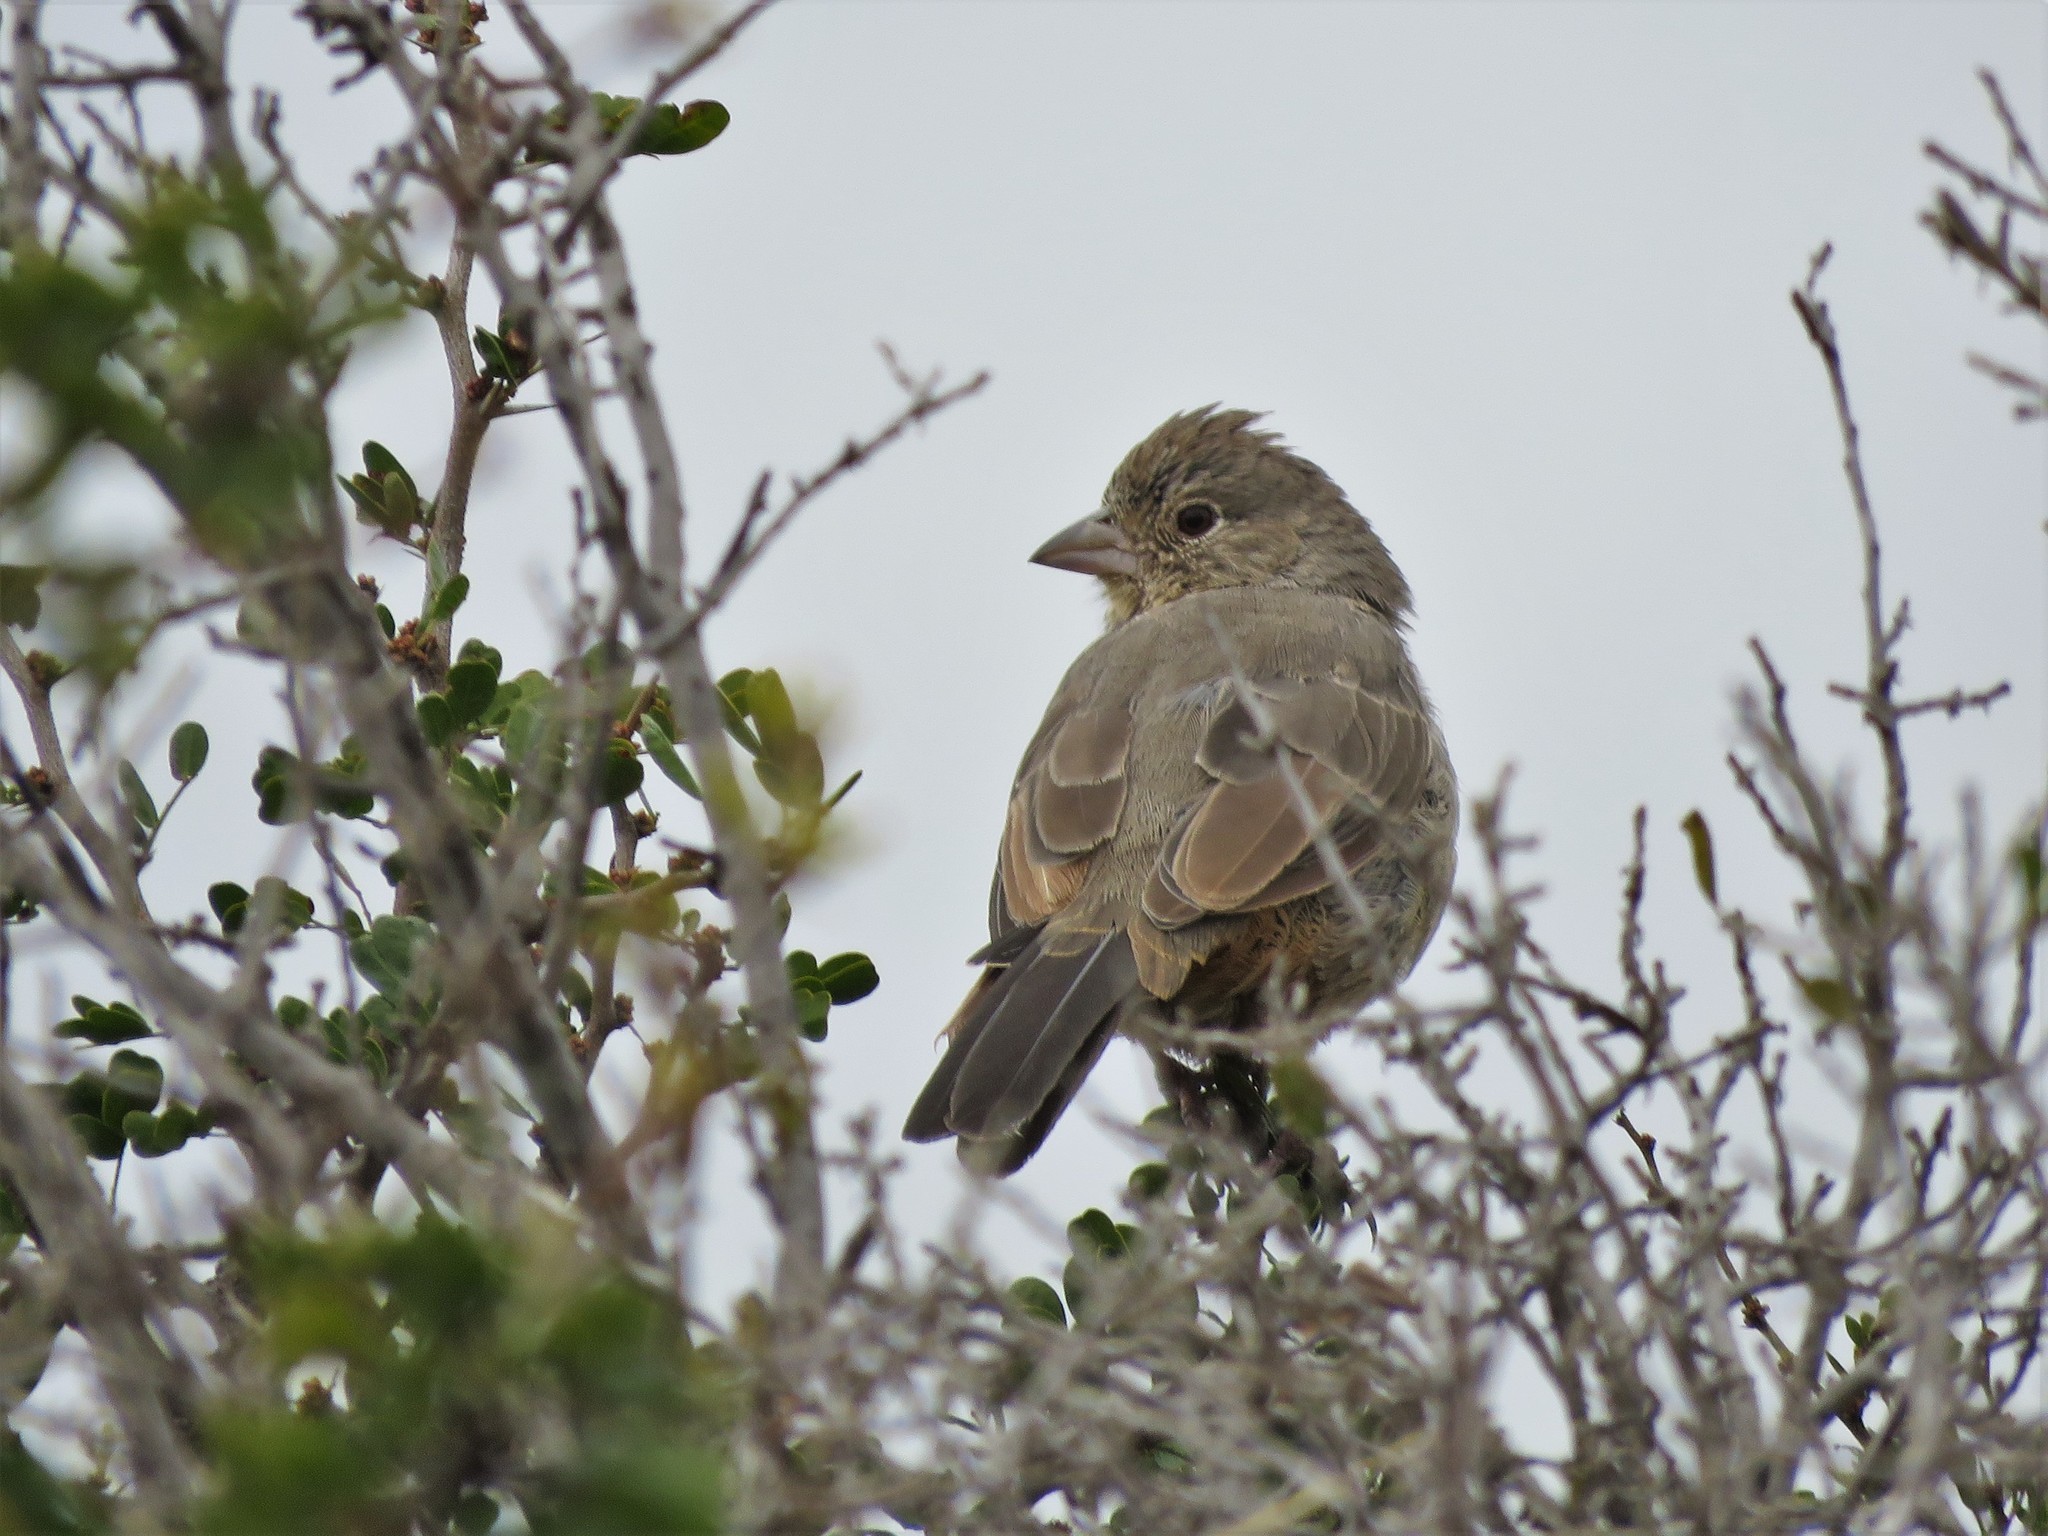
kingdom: Animalia
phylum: Chordata
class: Aves
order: Passeriformes
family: Passerellidae
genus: Melozone
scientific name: Melozone fusca
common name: Canyon towhee
